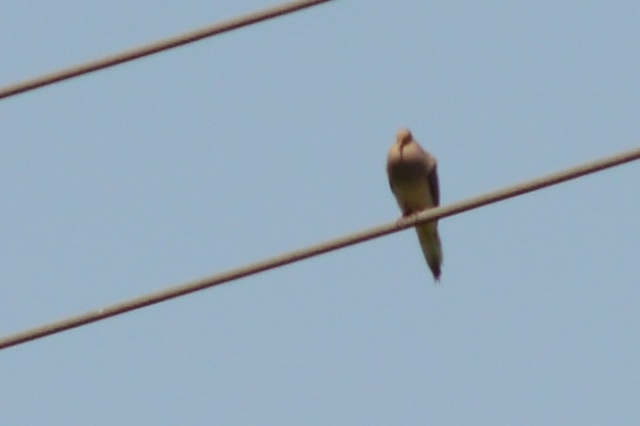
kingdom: Animalia
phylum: Chordata
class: Aves
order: Columbiformes
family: Columbidae
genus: Zenaida
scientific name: Zenaida macroura
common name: Mourning dove
